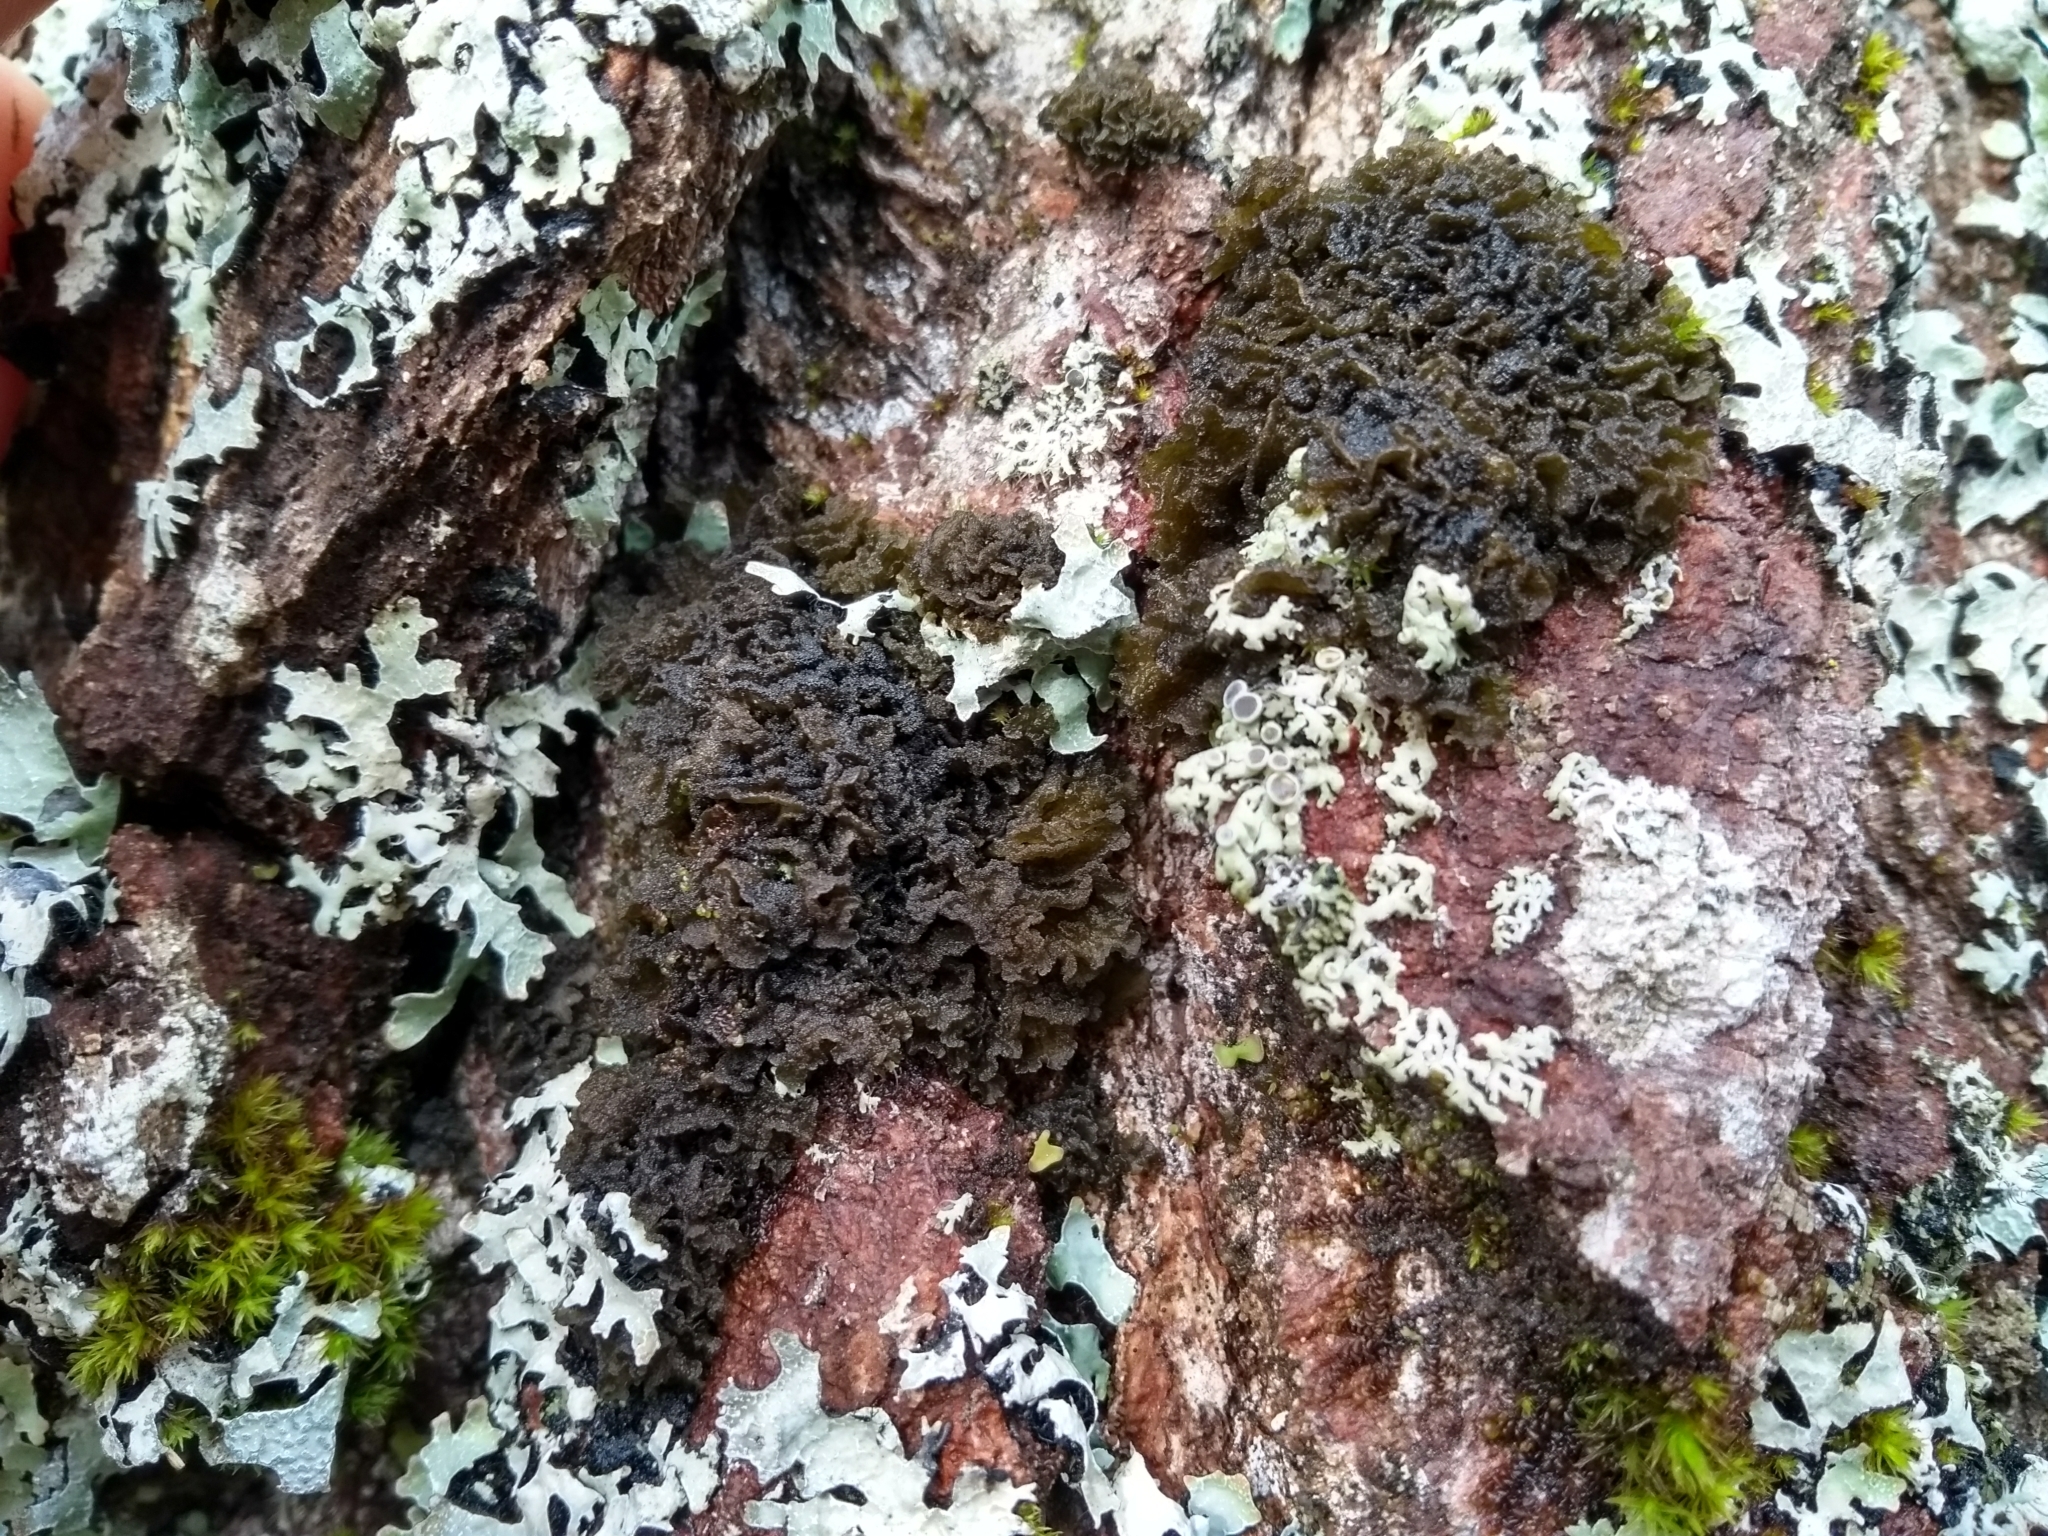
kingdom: Fungi
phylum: Ascomycota
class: Lecanoromycetes
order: Peltigerales
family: Collemataceae
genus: Leptogium
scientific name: Leptogium milligranum
